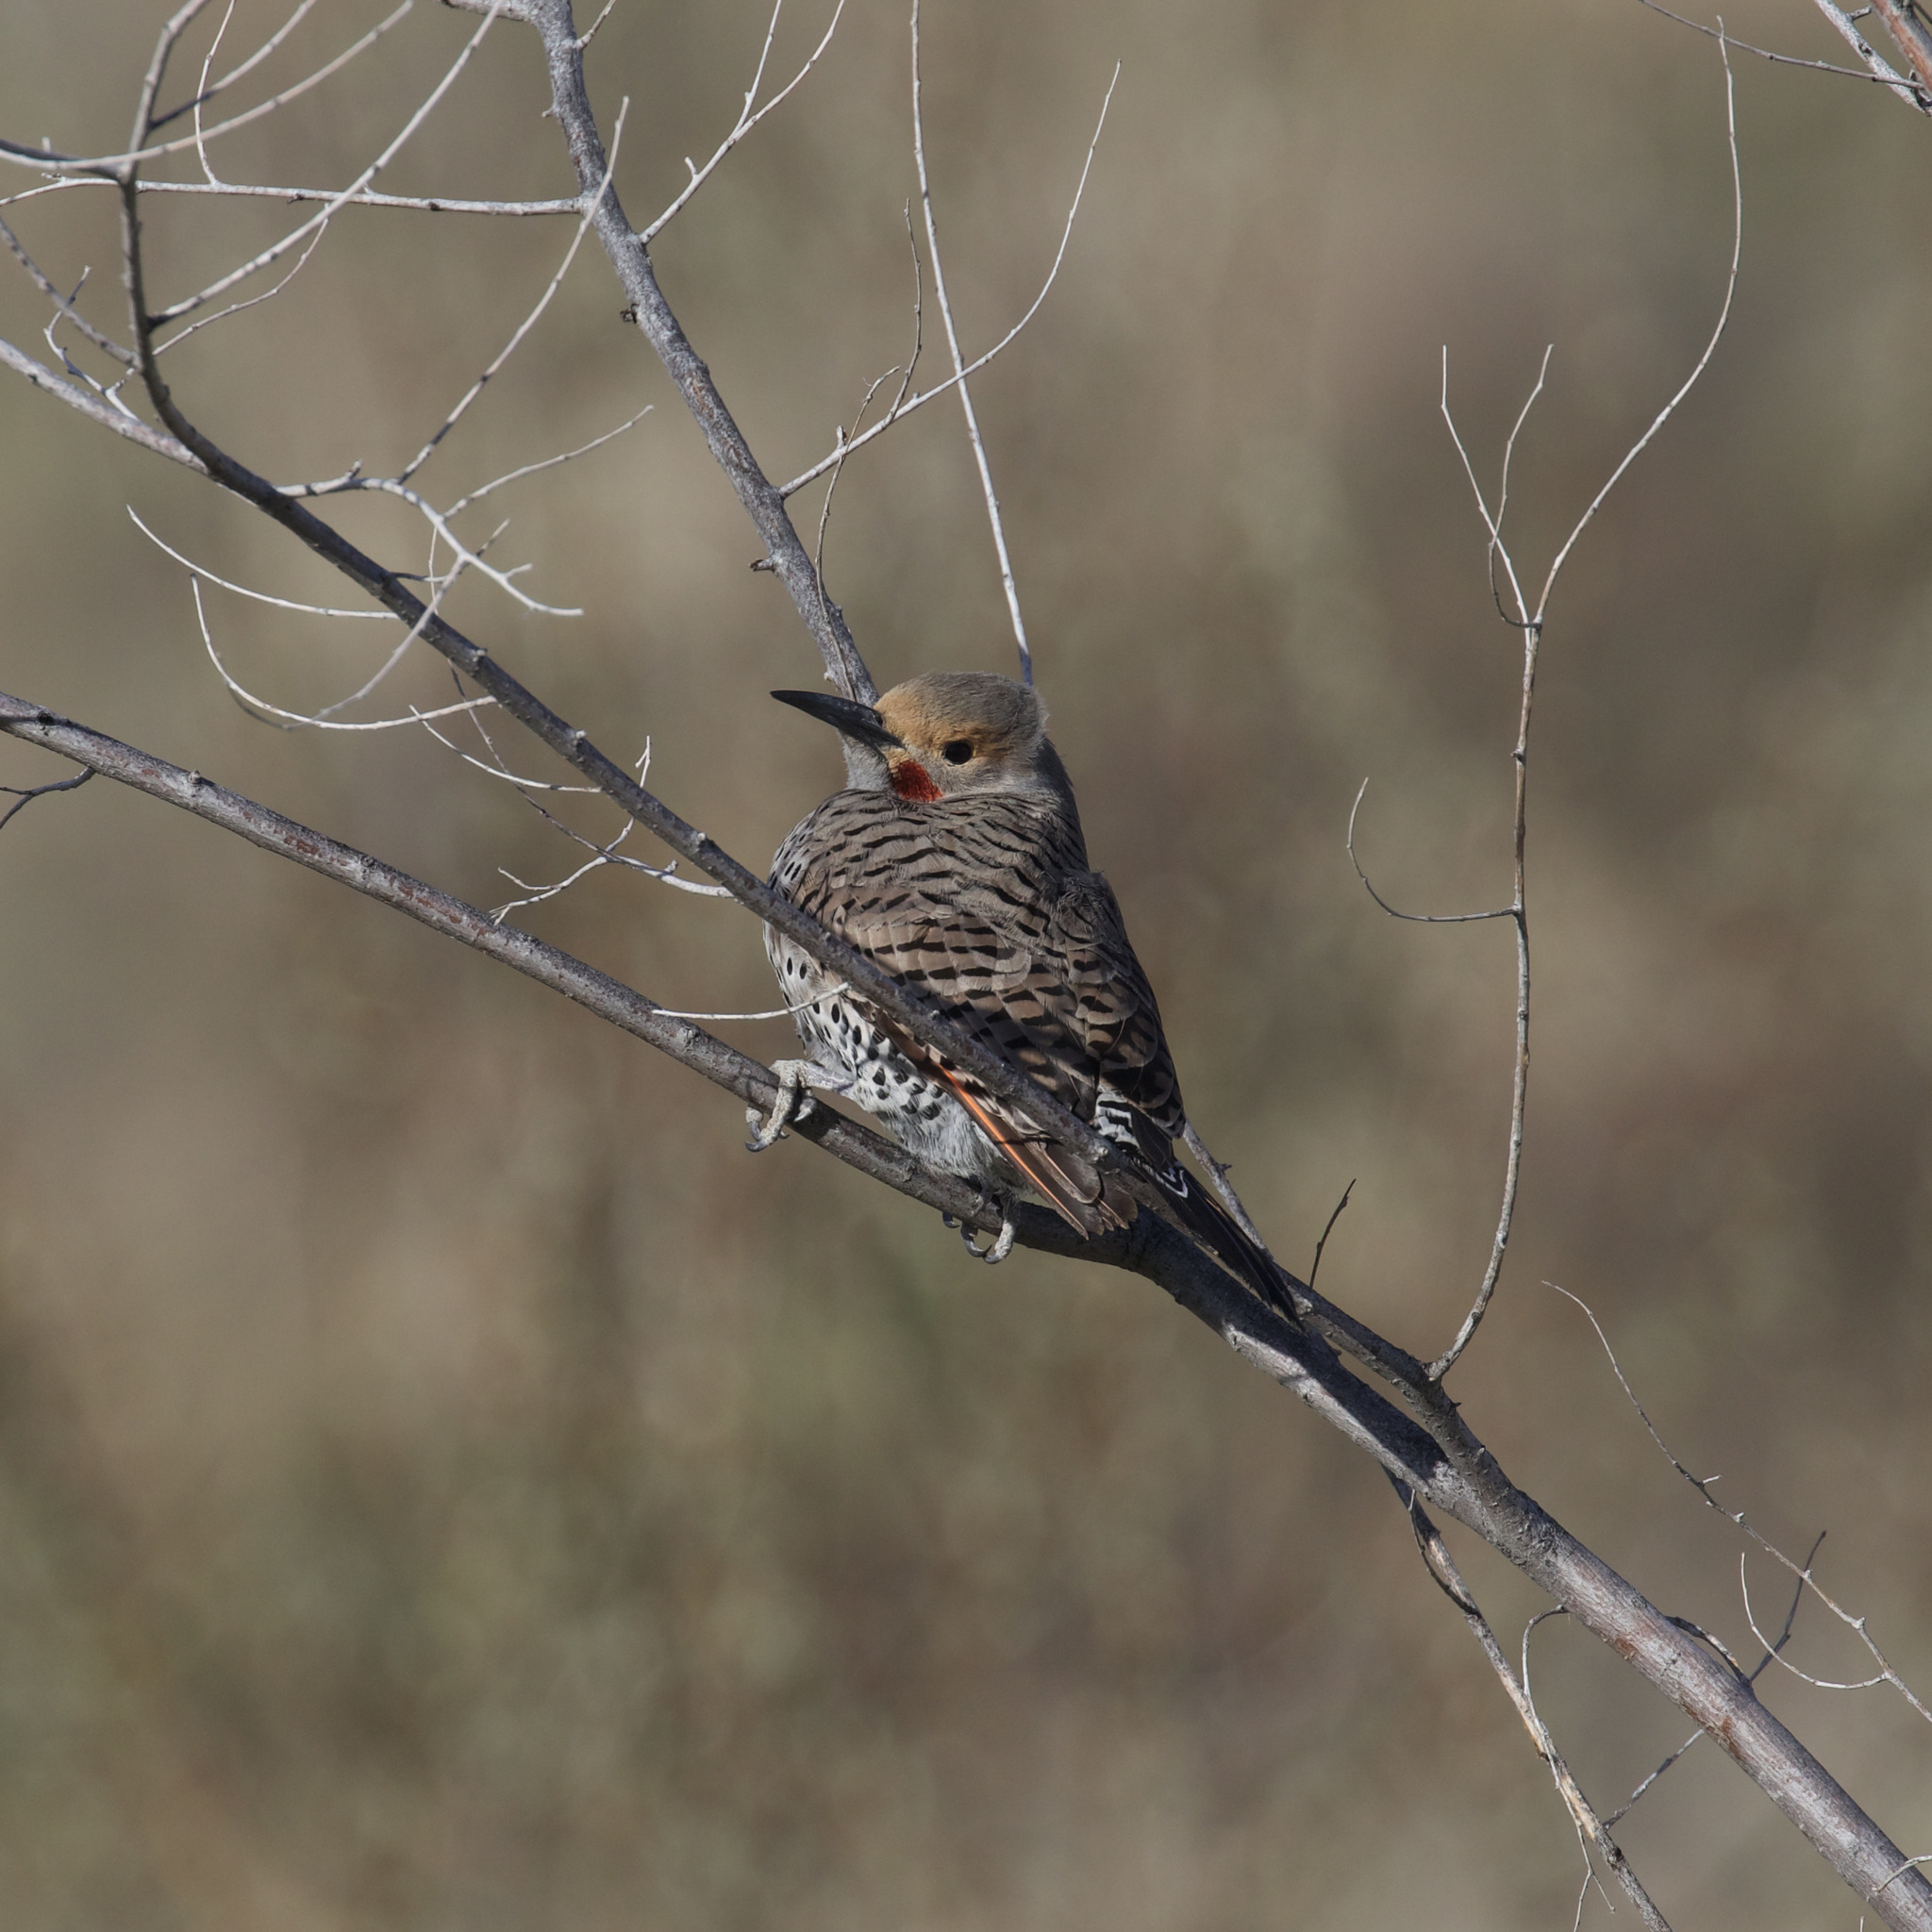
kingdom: Animalia
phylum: Chordata
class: Aves
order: Piciformes
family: Picidae
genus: Colaptes
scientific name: Colaptes auratus
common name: Northern flicker
